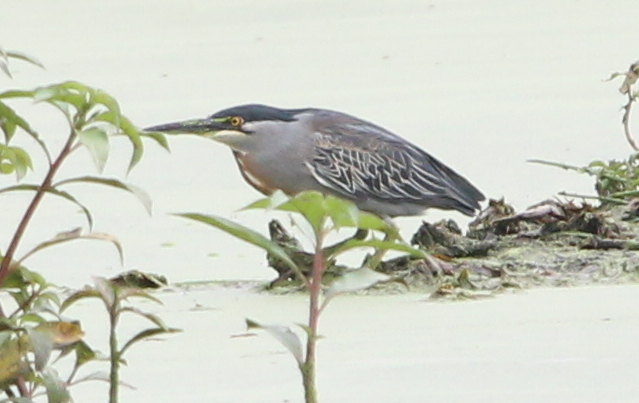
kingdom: Animalia
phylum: Chordata
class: Aves
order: Pelecaniformes
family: Ardeidae
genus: Butorides
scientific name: Butorides striata
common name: Striated heron
